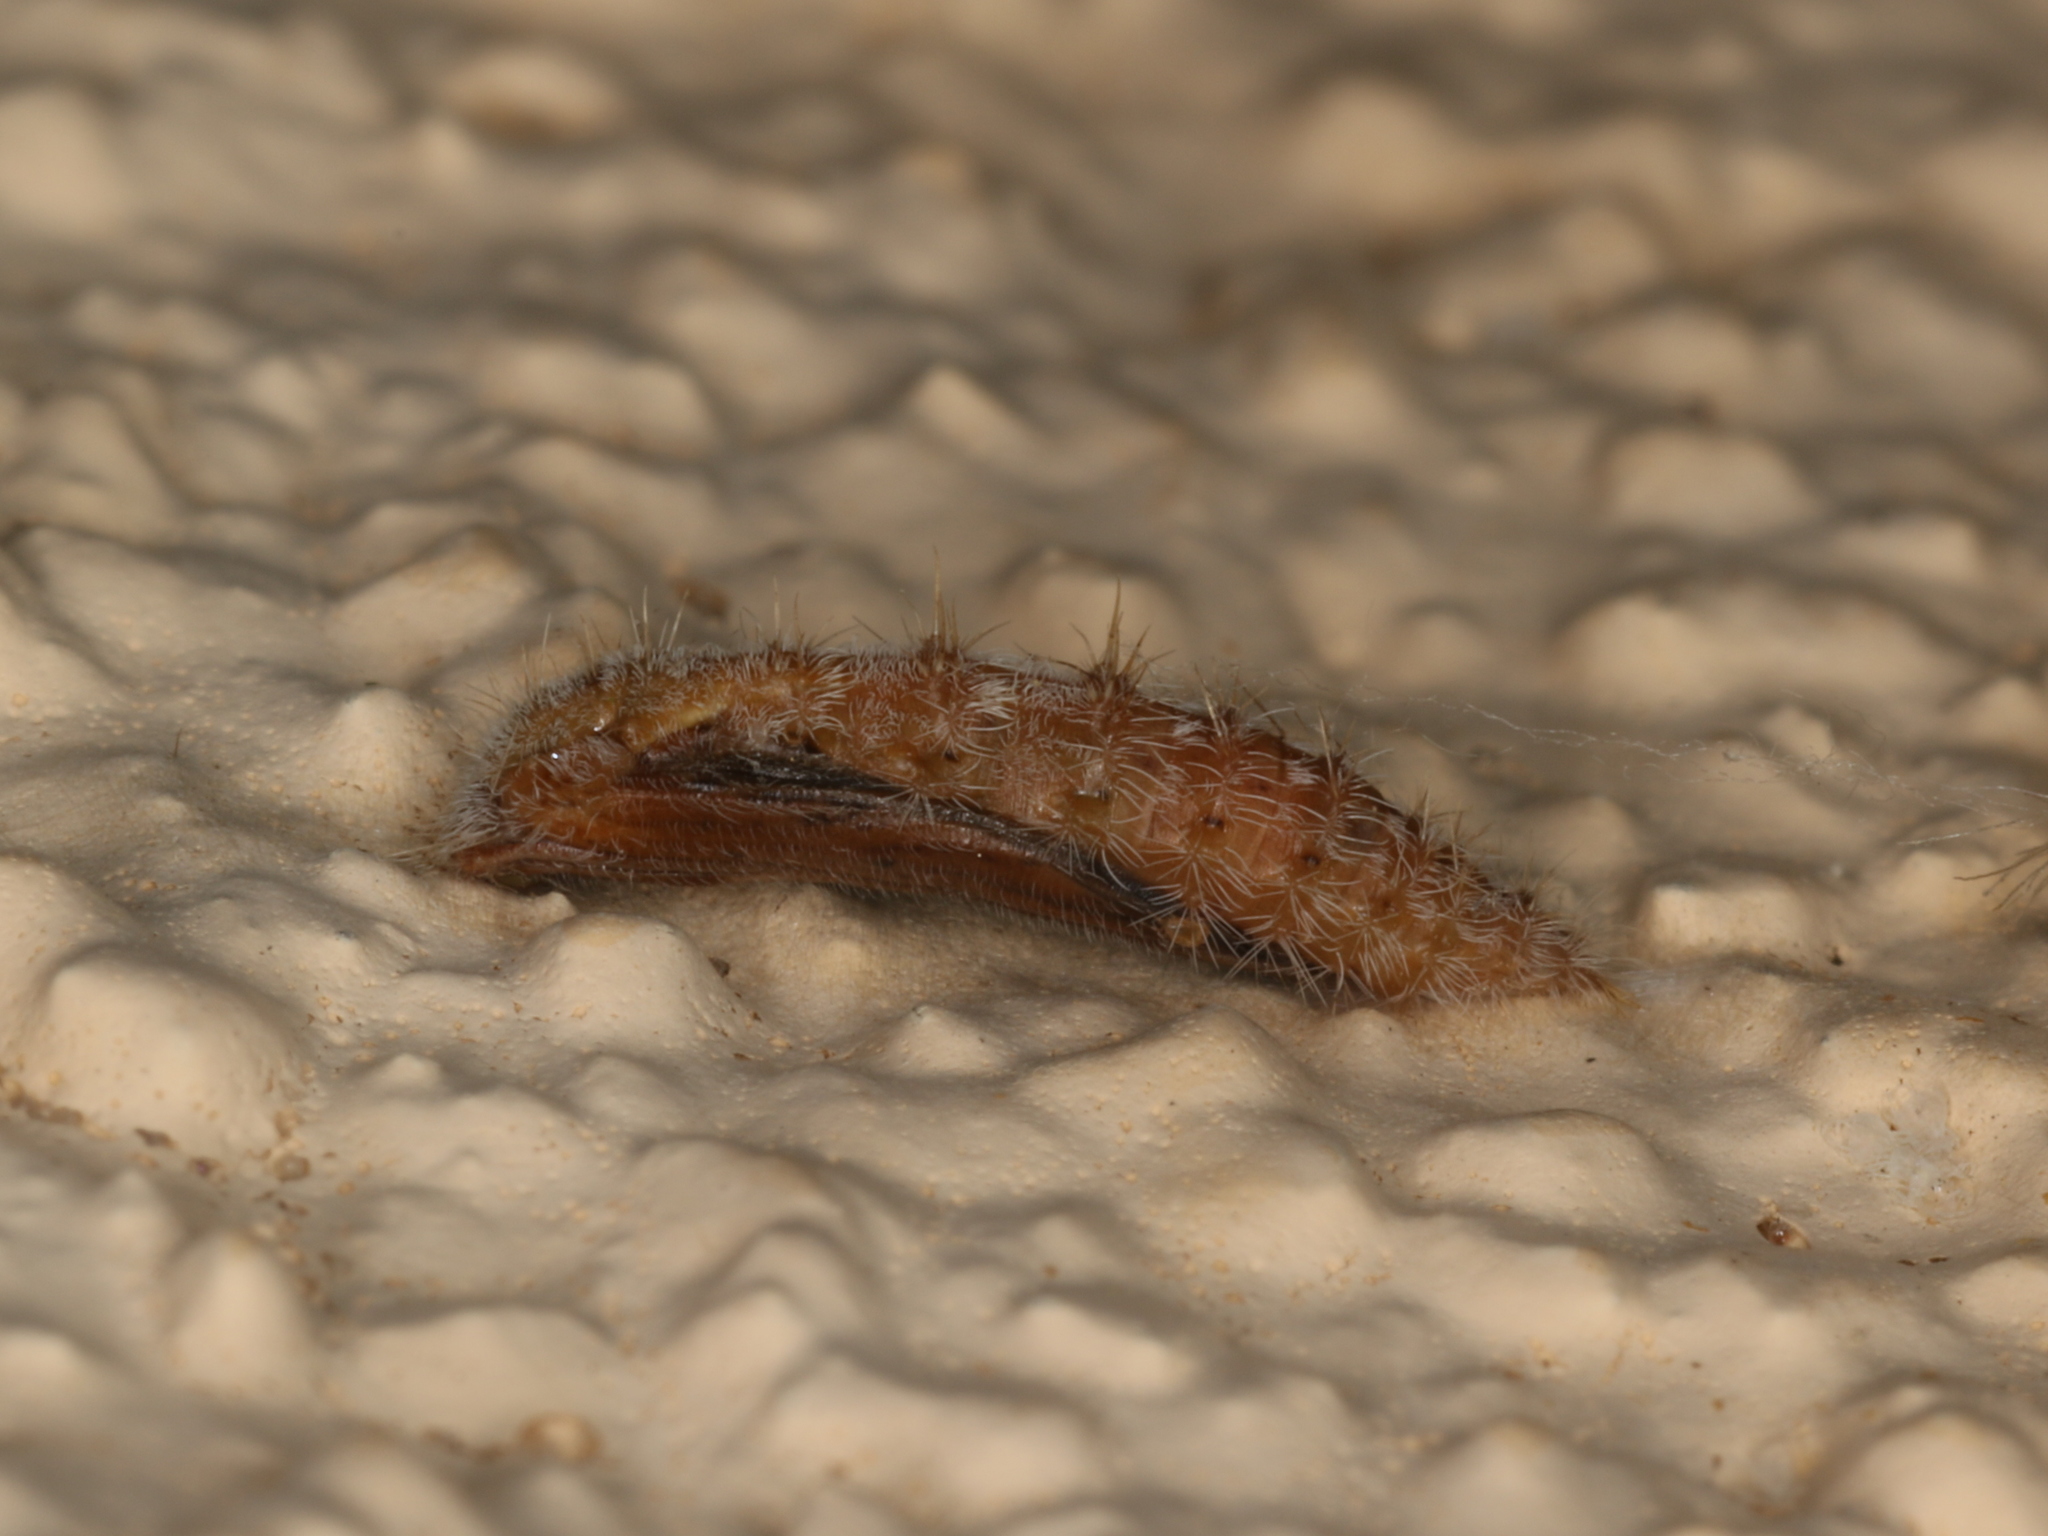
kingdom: Animalia
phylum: Arthropoda
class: Insecta
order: Lepidoptera
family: Pterophoridae
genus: Emmelina
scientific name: Emmelina monodactyla
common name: Common plume
